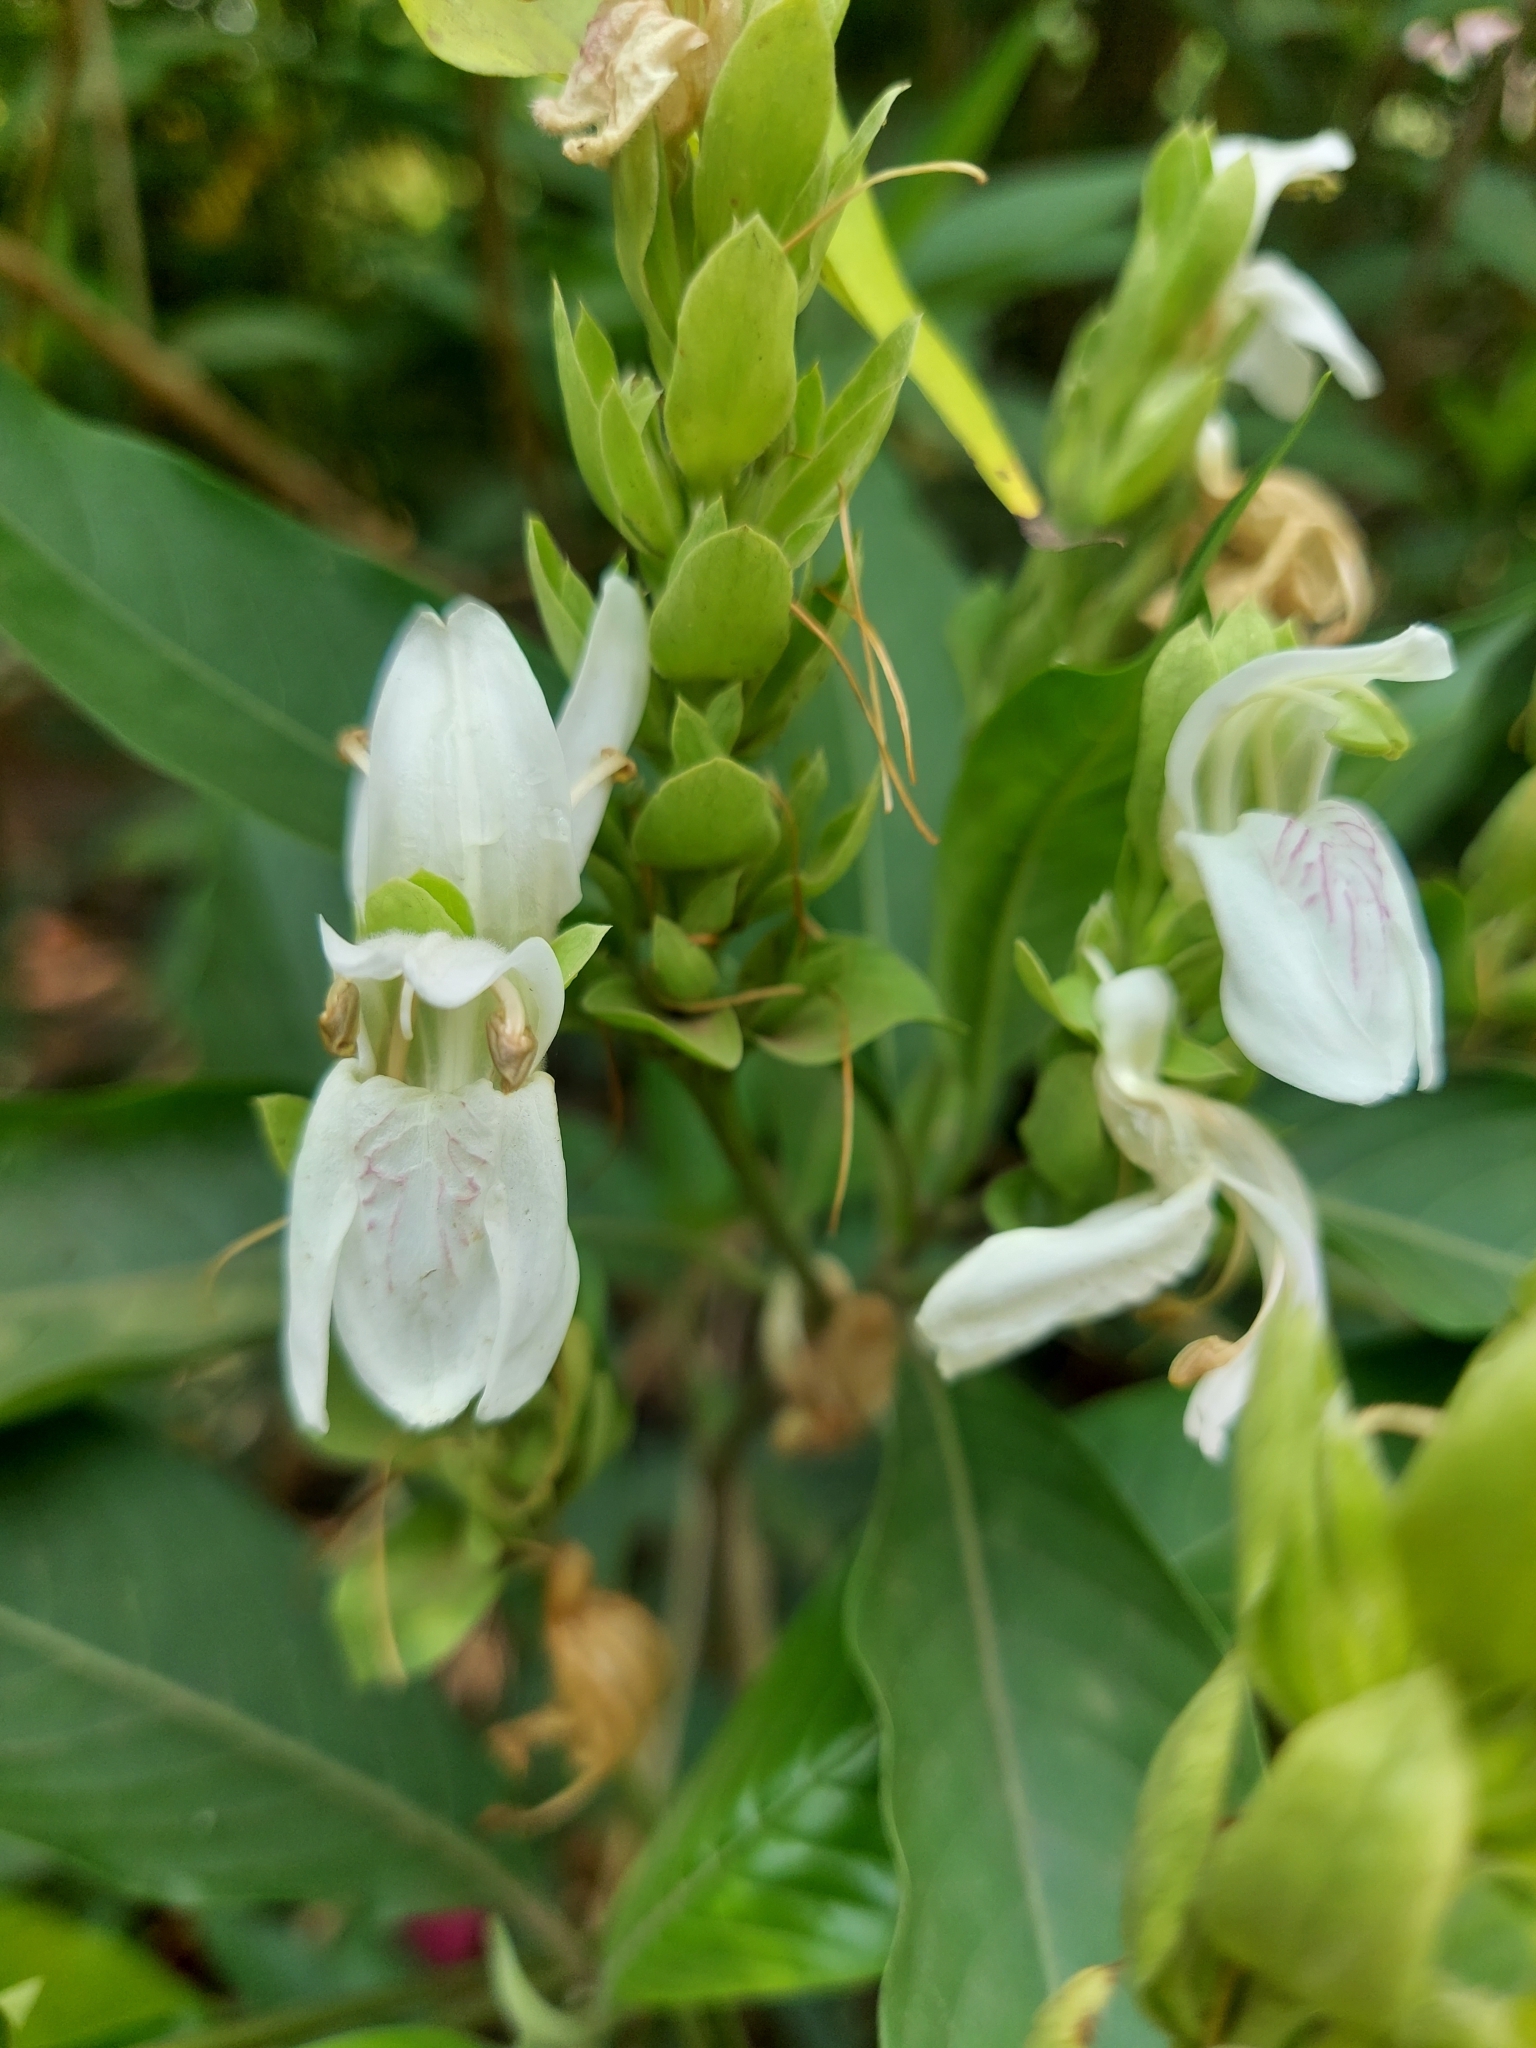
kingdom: Plantae
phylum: Tracheophyta
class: Magnoliopsida
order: Lamiales
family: Acanthaceae
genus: Justicia
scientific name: Justicia adhatoda
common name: Malabar nut
